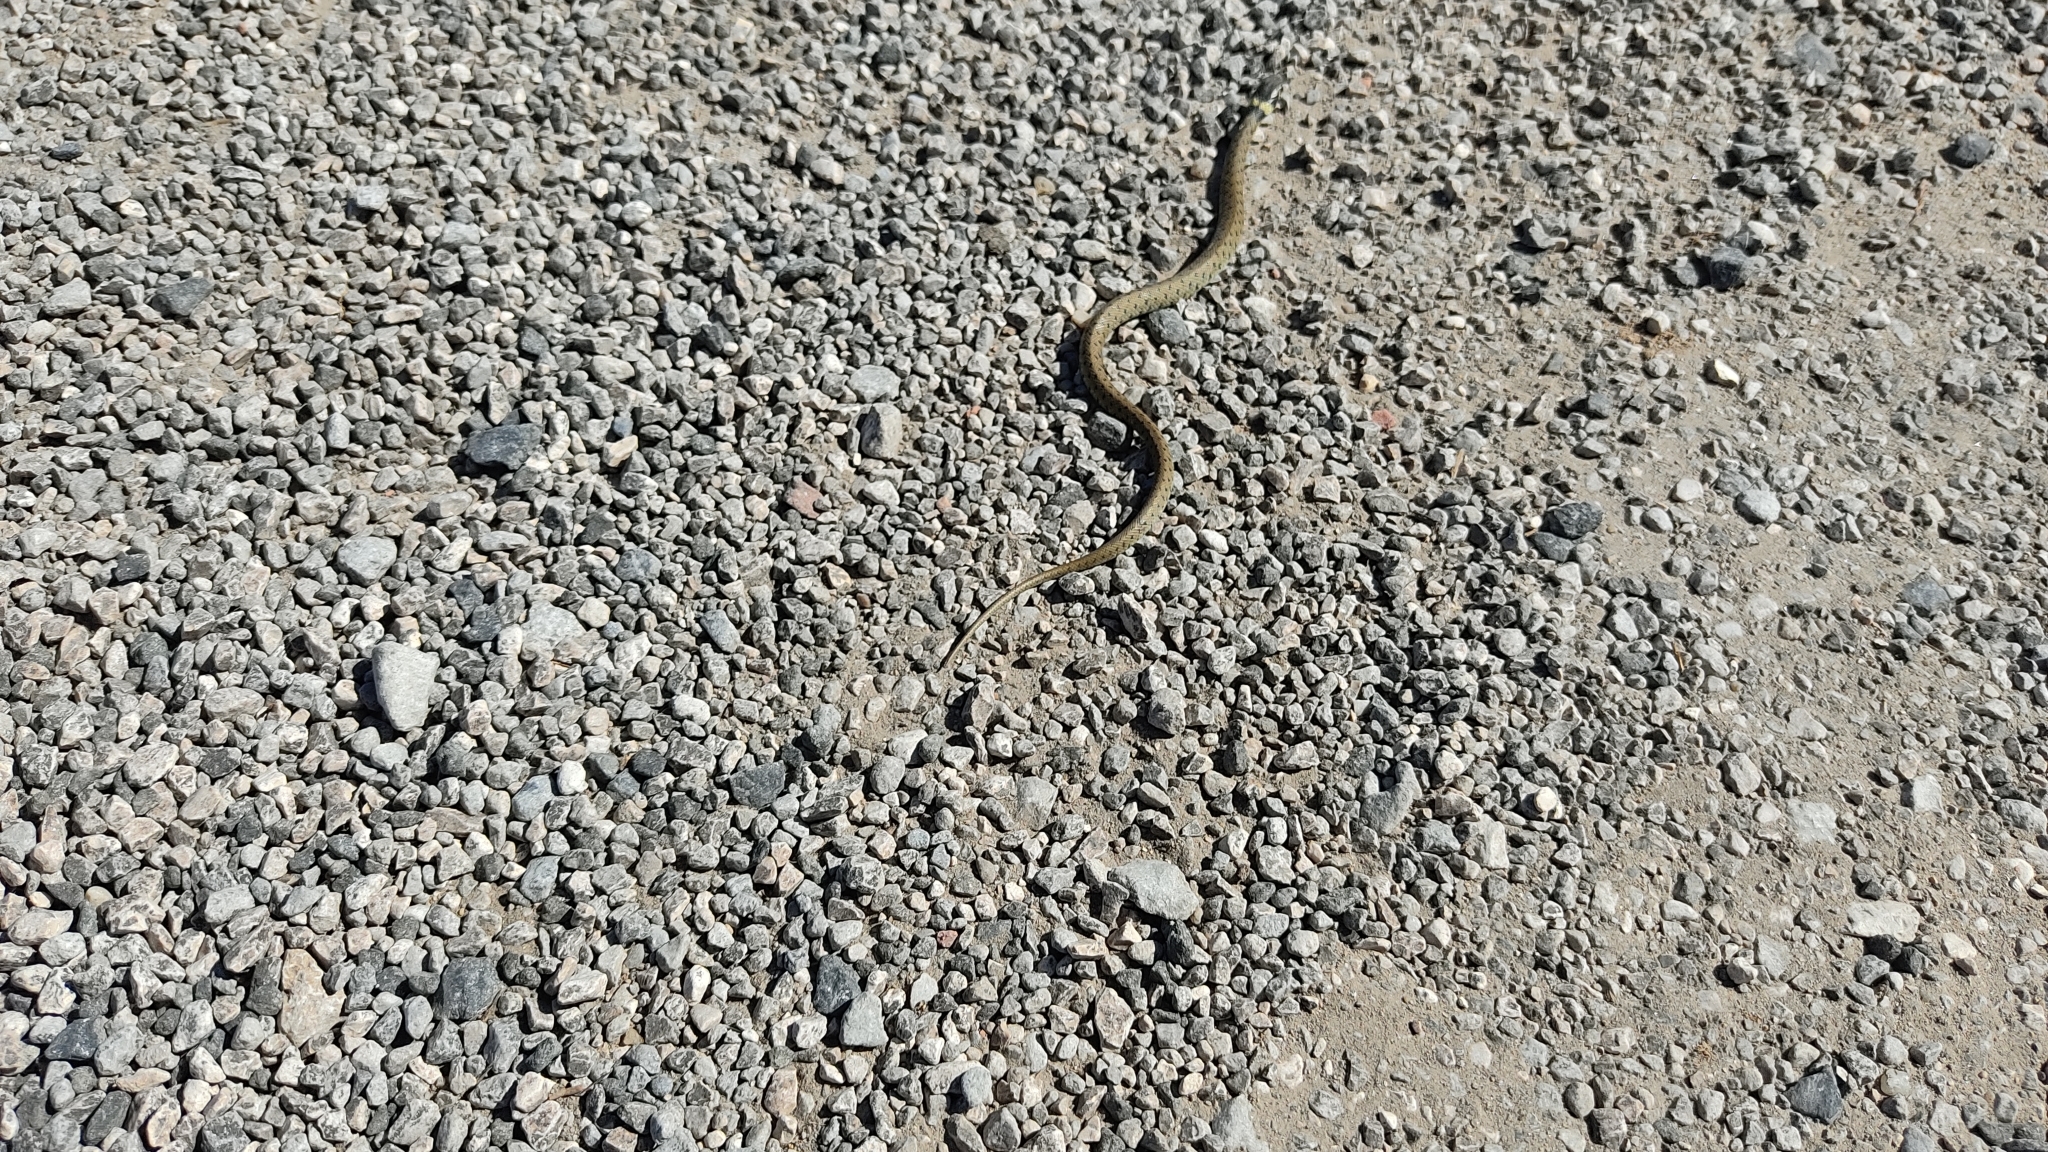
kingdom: Animalia
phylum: Chordata
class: Squamata
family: Colubridae
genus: Natrix
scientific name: Natrix astreptophora
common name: Red-eyed grass snake
